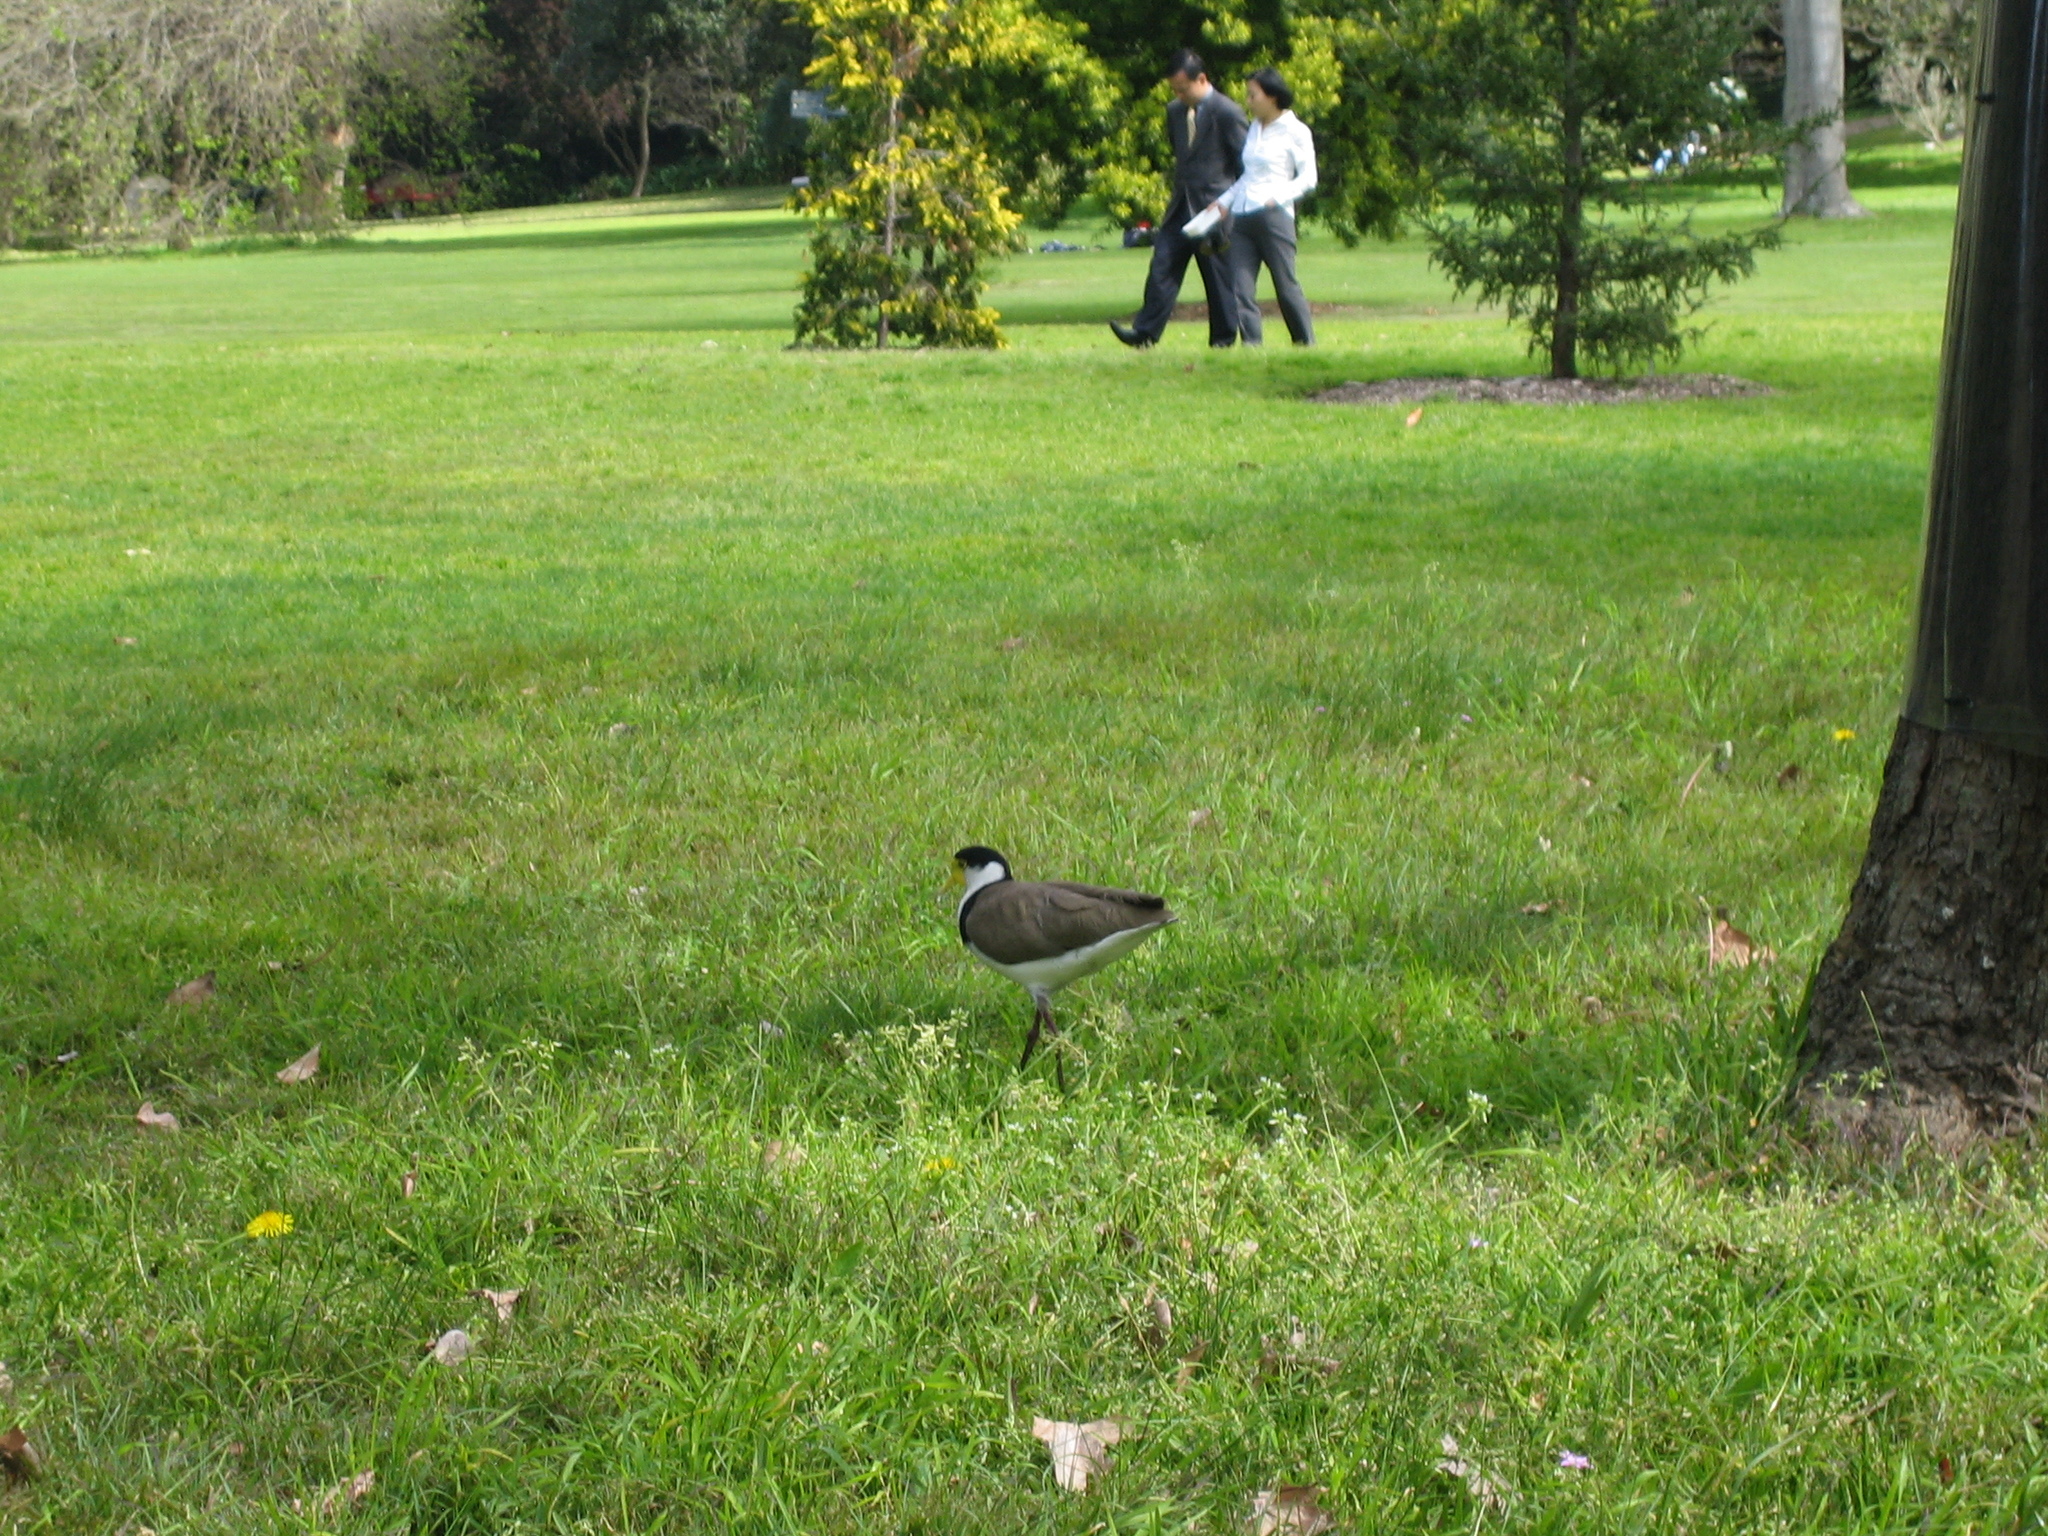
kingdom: Animalia
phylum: Chordata
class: Aves
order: Charadriiformes
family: Charadriidae
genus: Vanellus
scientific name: Vanellus miles
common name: Masked lapwing
